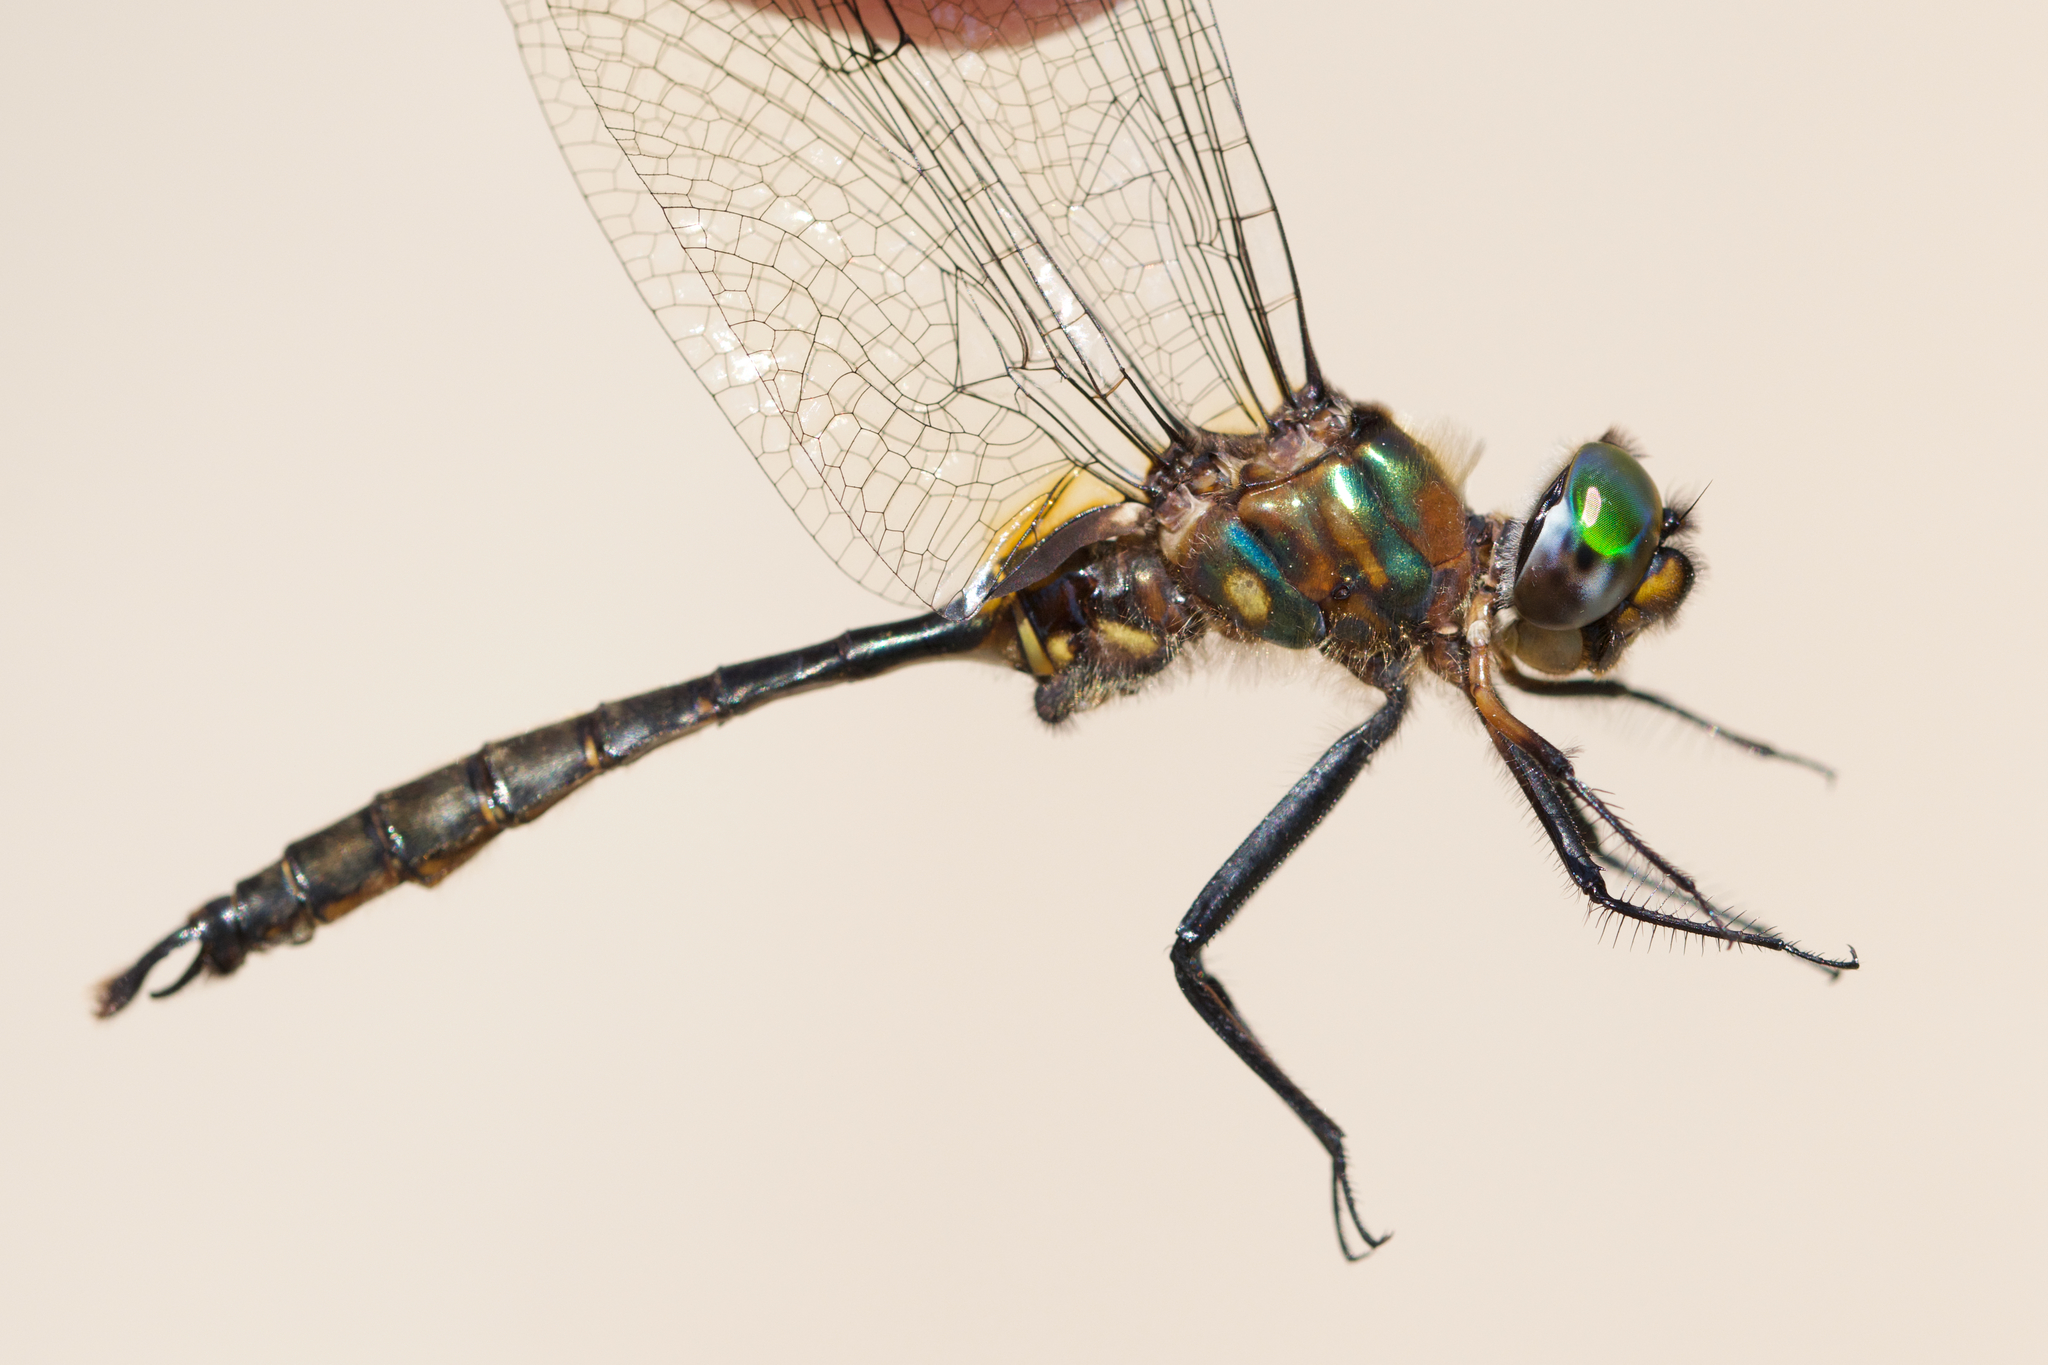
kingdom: Animalia
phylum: Arthropoda
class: Insecta
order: Odonata
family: Corduliidae
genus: Somatochlora
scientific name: Somatochlora walshii
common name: Brush-tipped emerald
